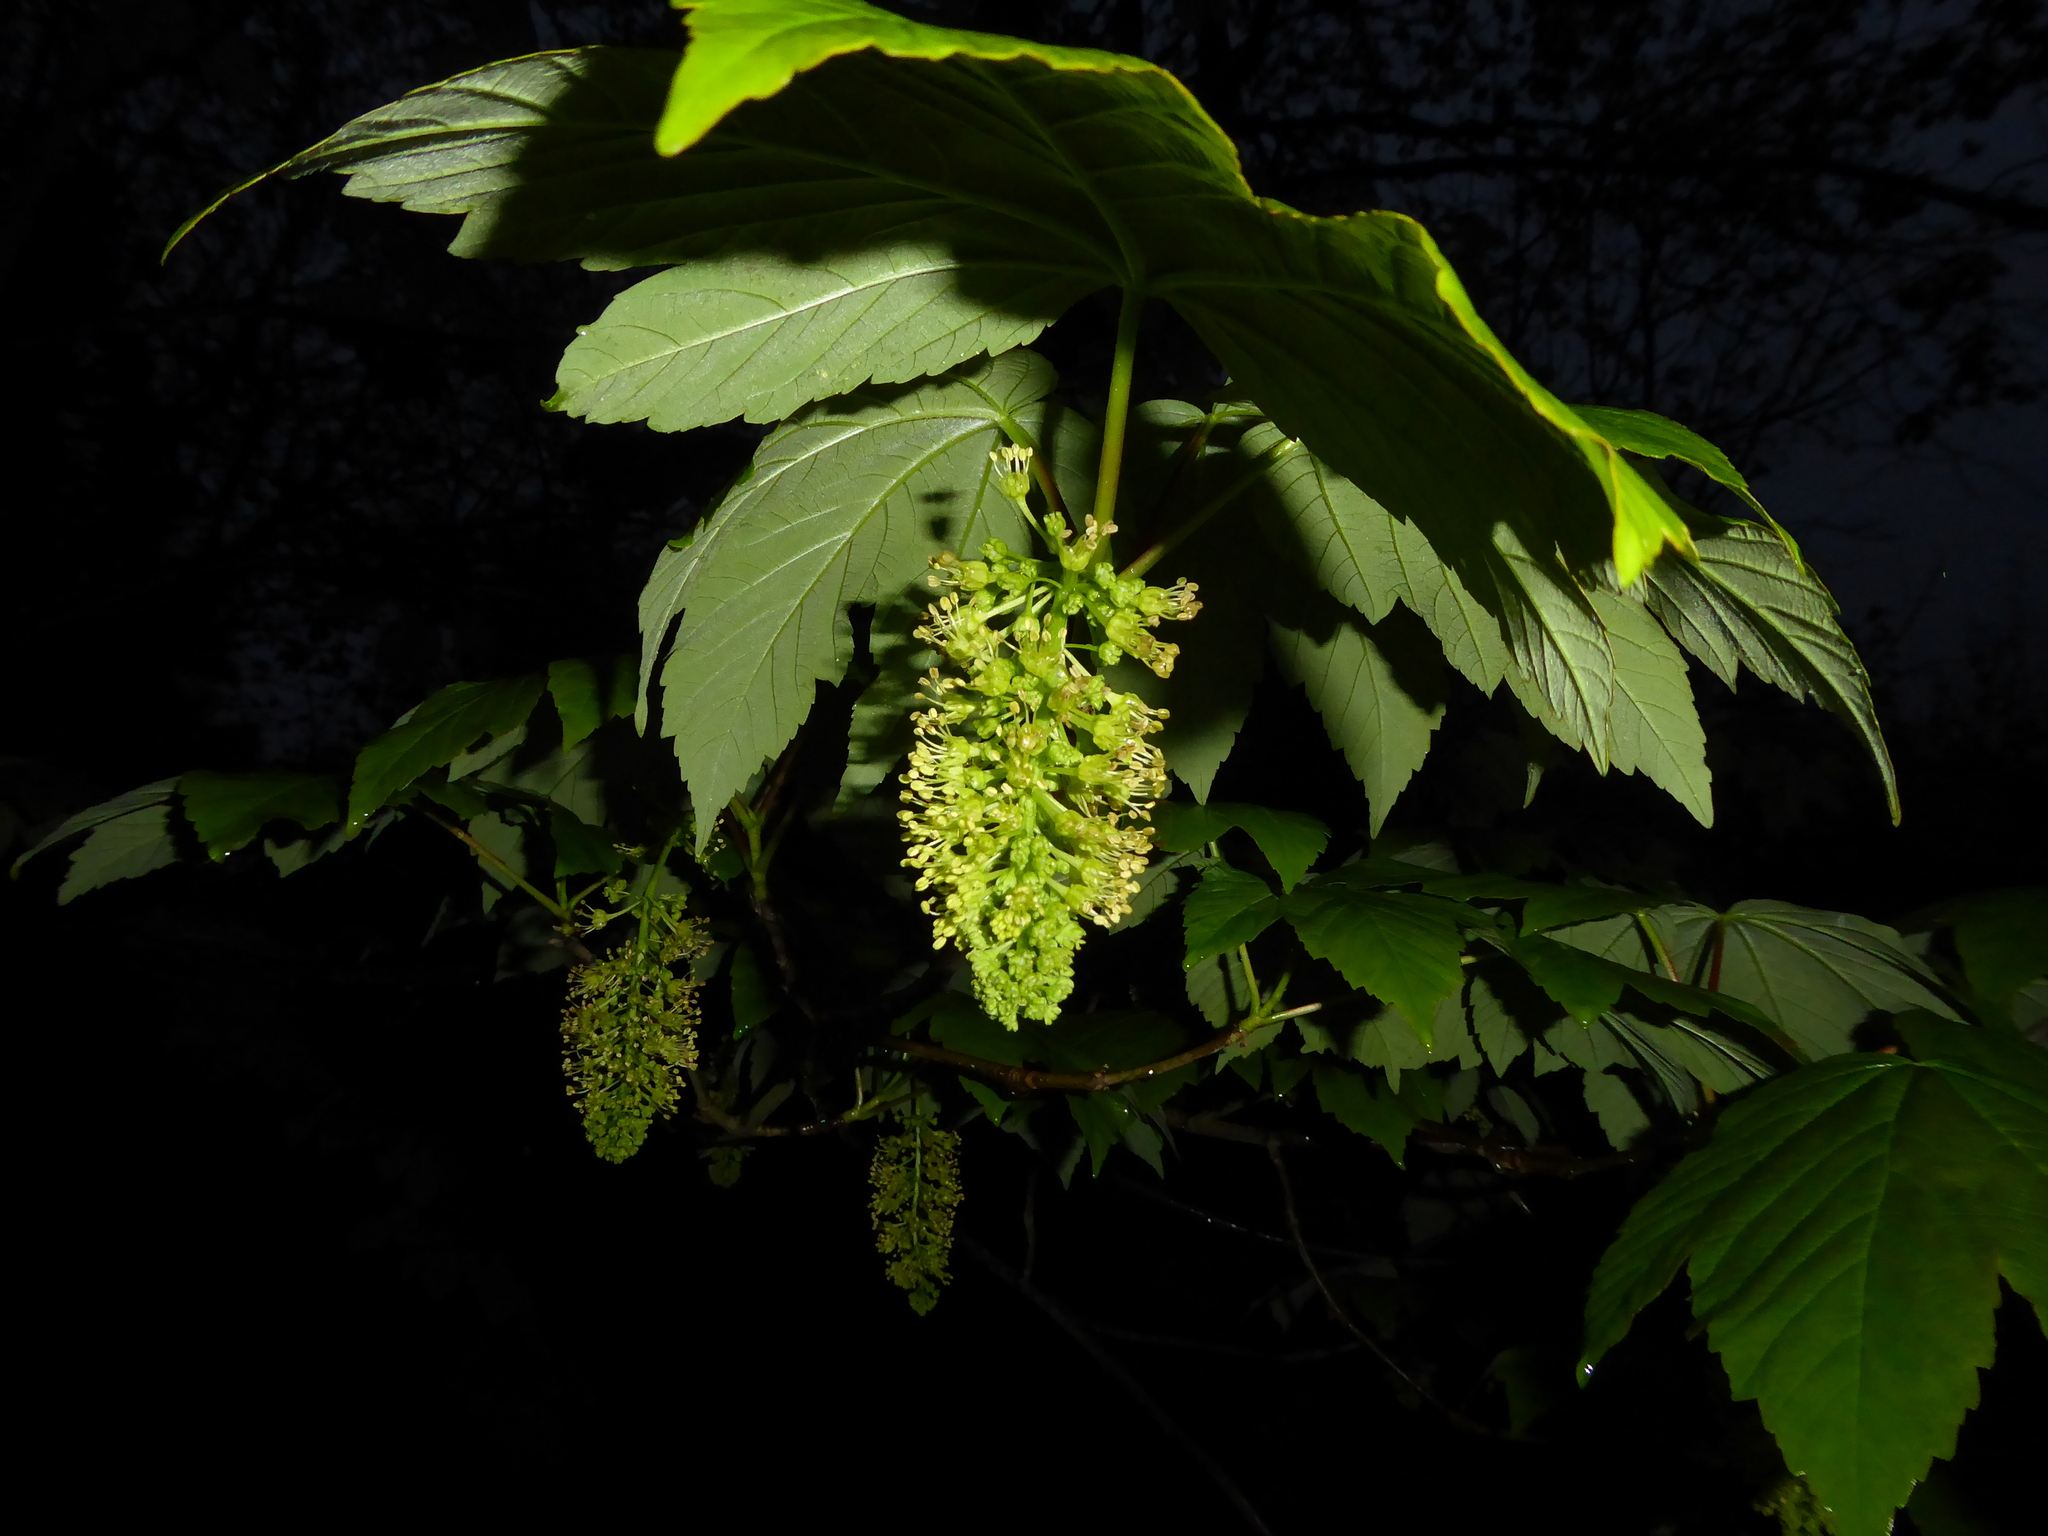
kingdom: Plantae
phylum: Tracheophyta
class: Magnoliopsida
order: Sapindales
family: Sapindaceae
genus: Acer
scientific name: Acer pseudoplatanus
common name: Sycamore
